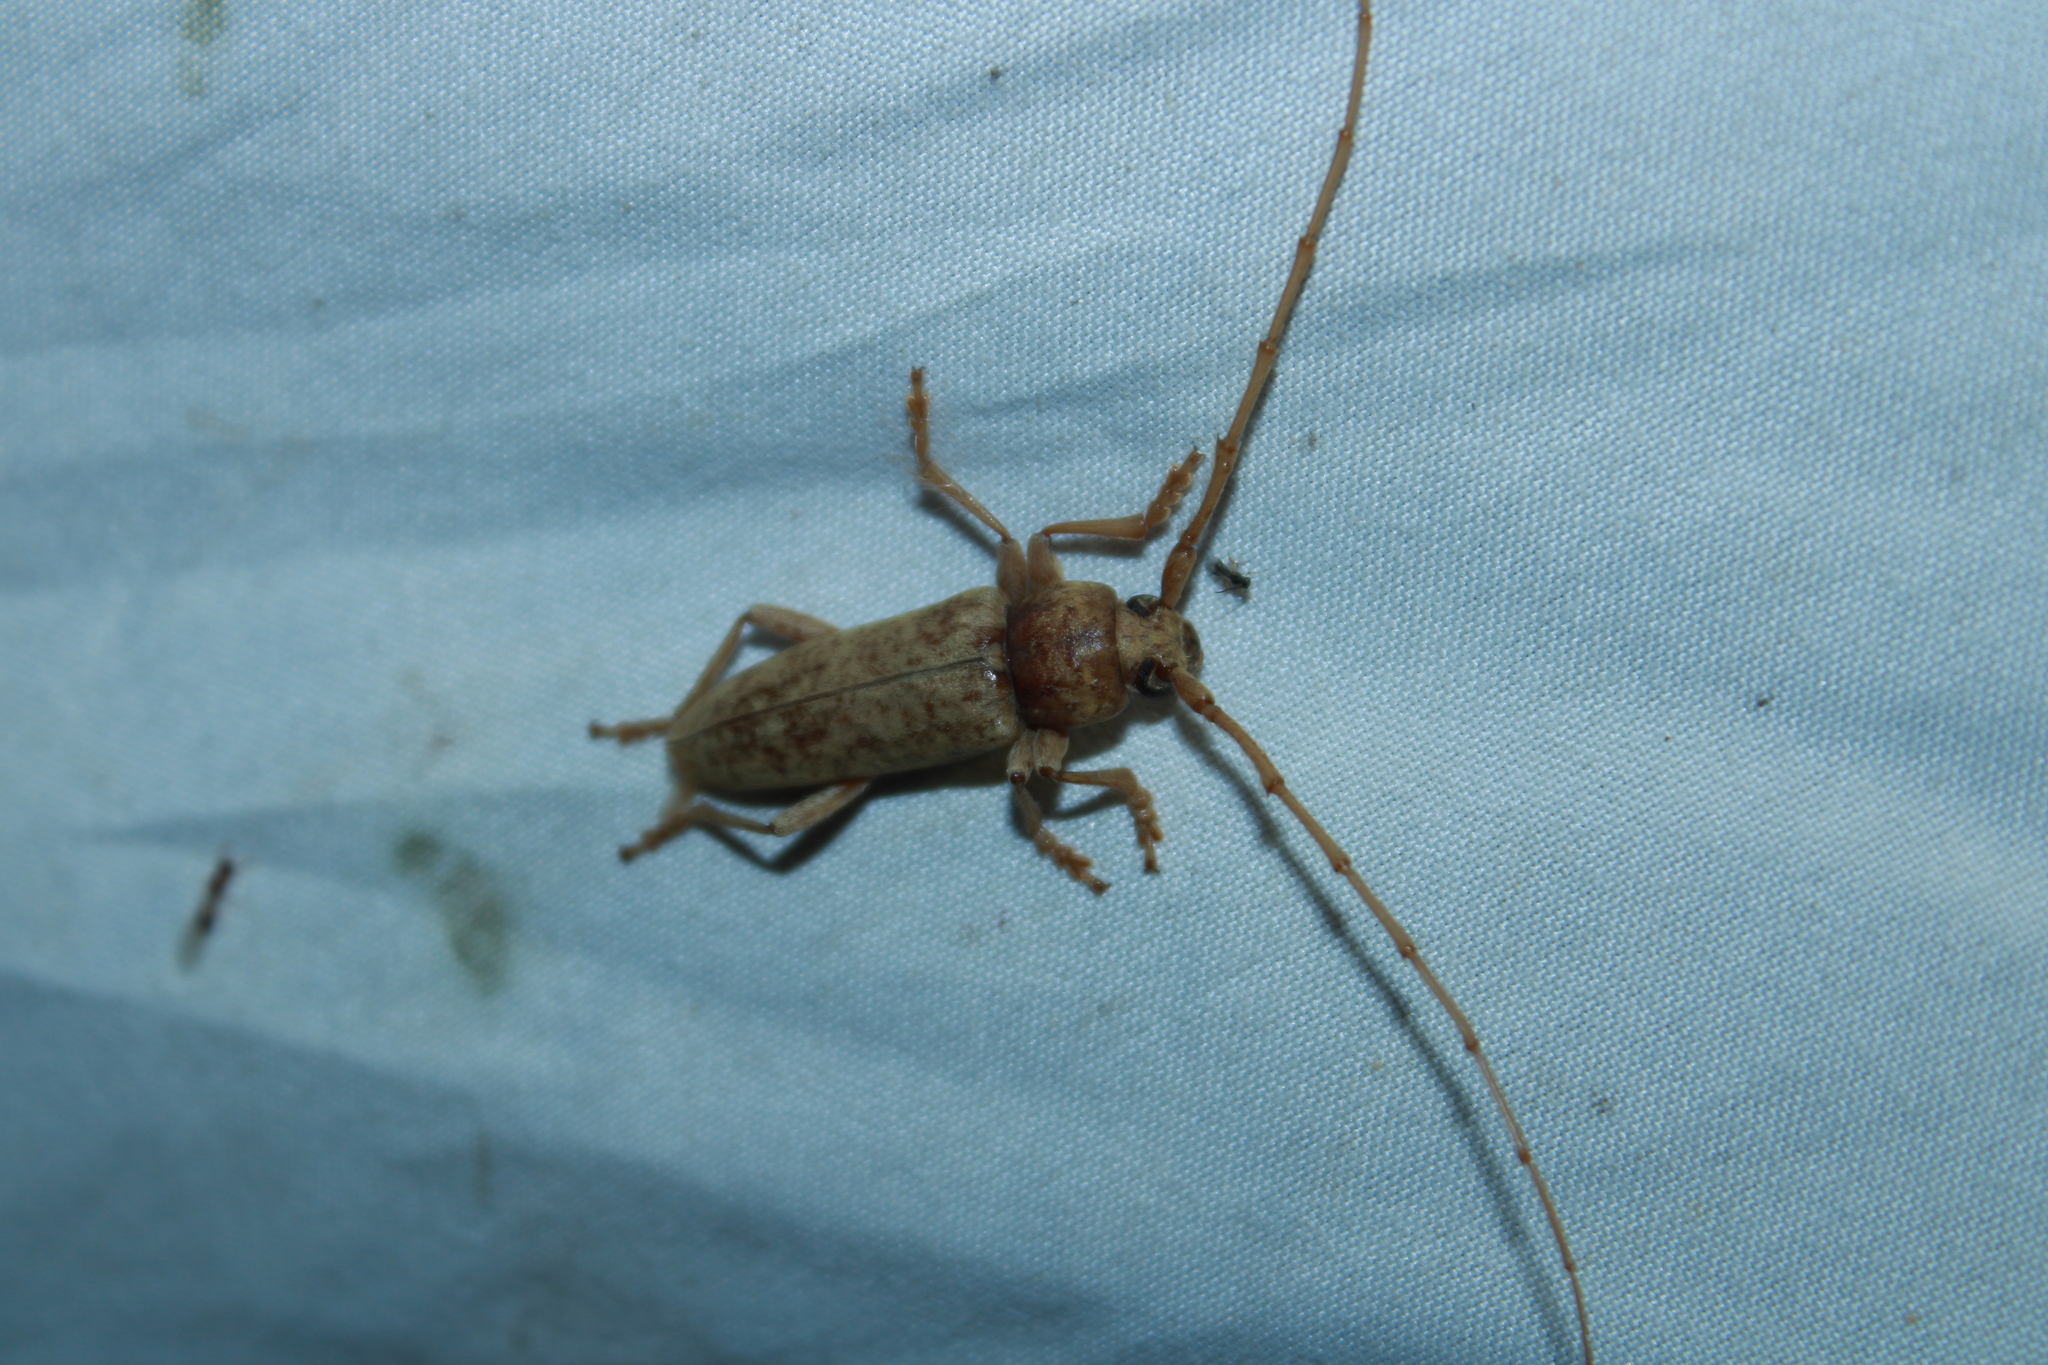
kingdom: Animalia
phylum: Arthropoda
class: Insecta
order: Coleoptera
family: Cerambycidae
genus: Enaphalodes
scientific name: Enaphalodes rufulus
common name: Red oak borer
